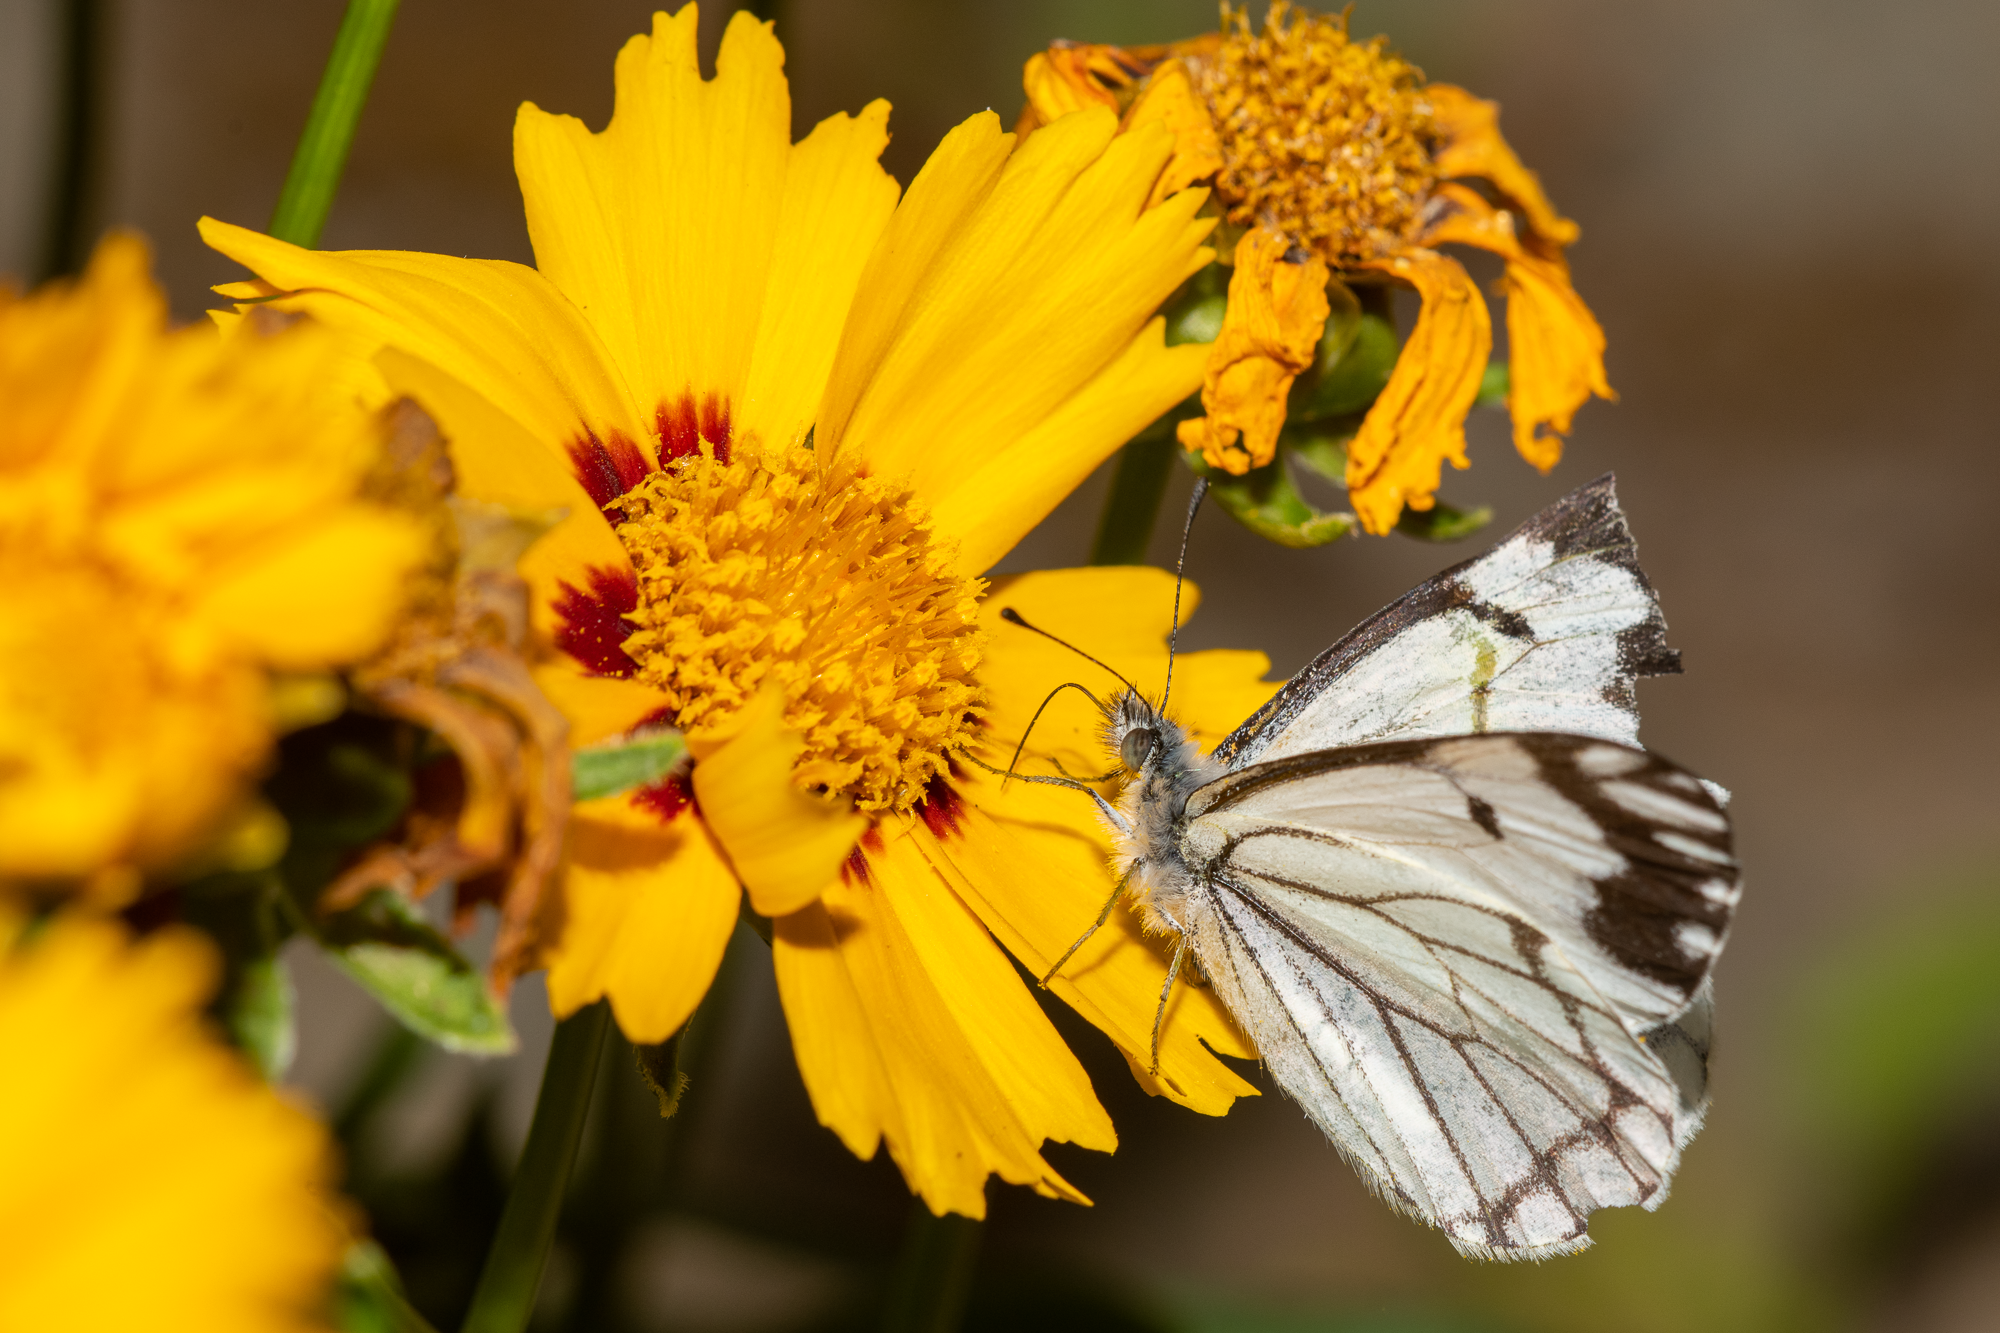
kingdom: Animalia
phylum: Arthropoda
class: Insecta
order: Lepidoptera
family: Pieridae
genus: Neophasia
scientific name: Neophasia menapia
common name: Pine white
